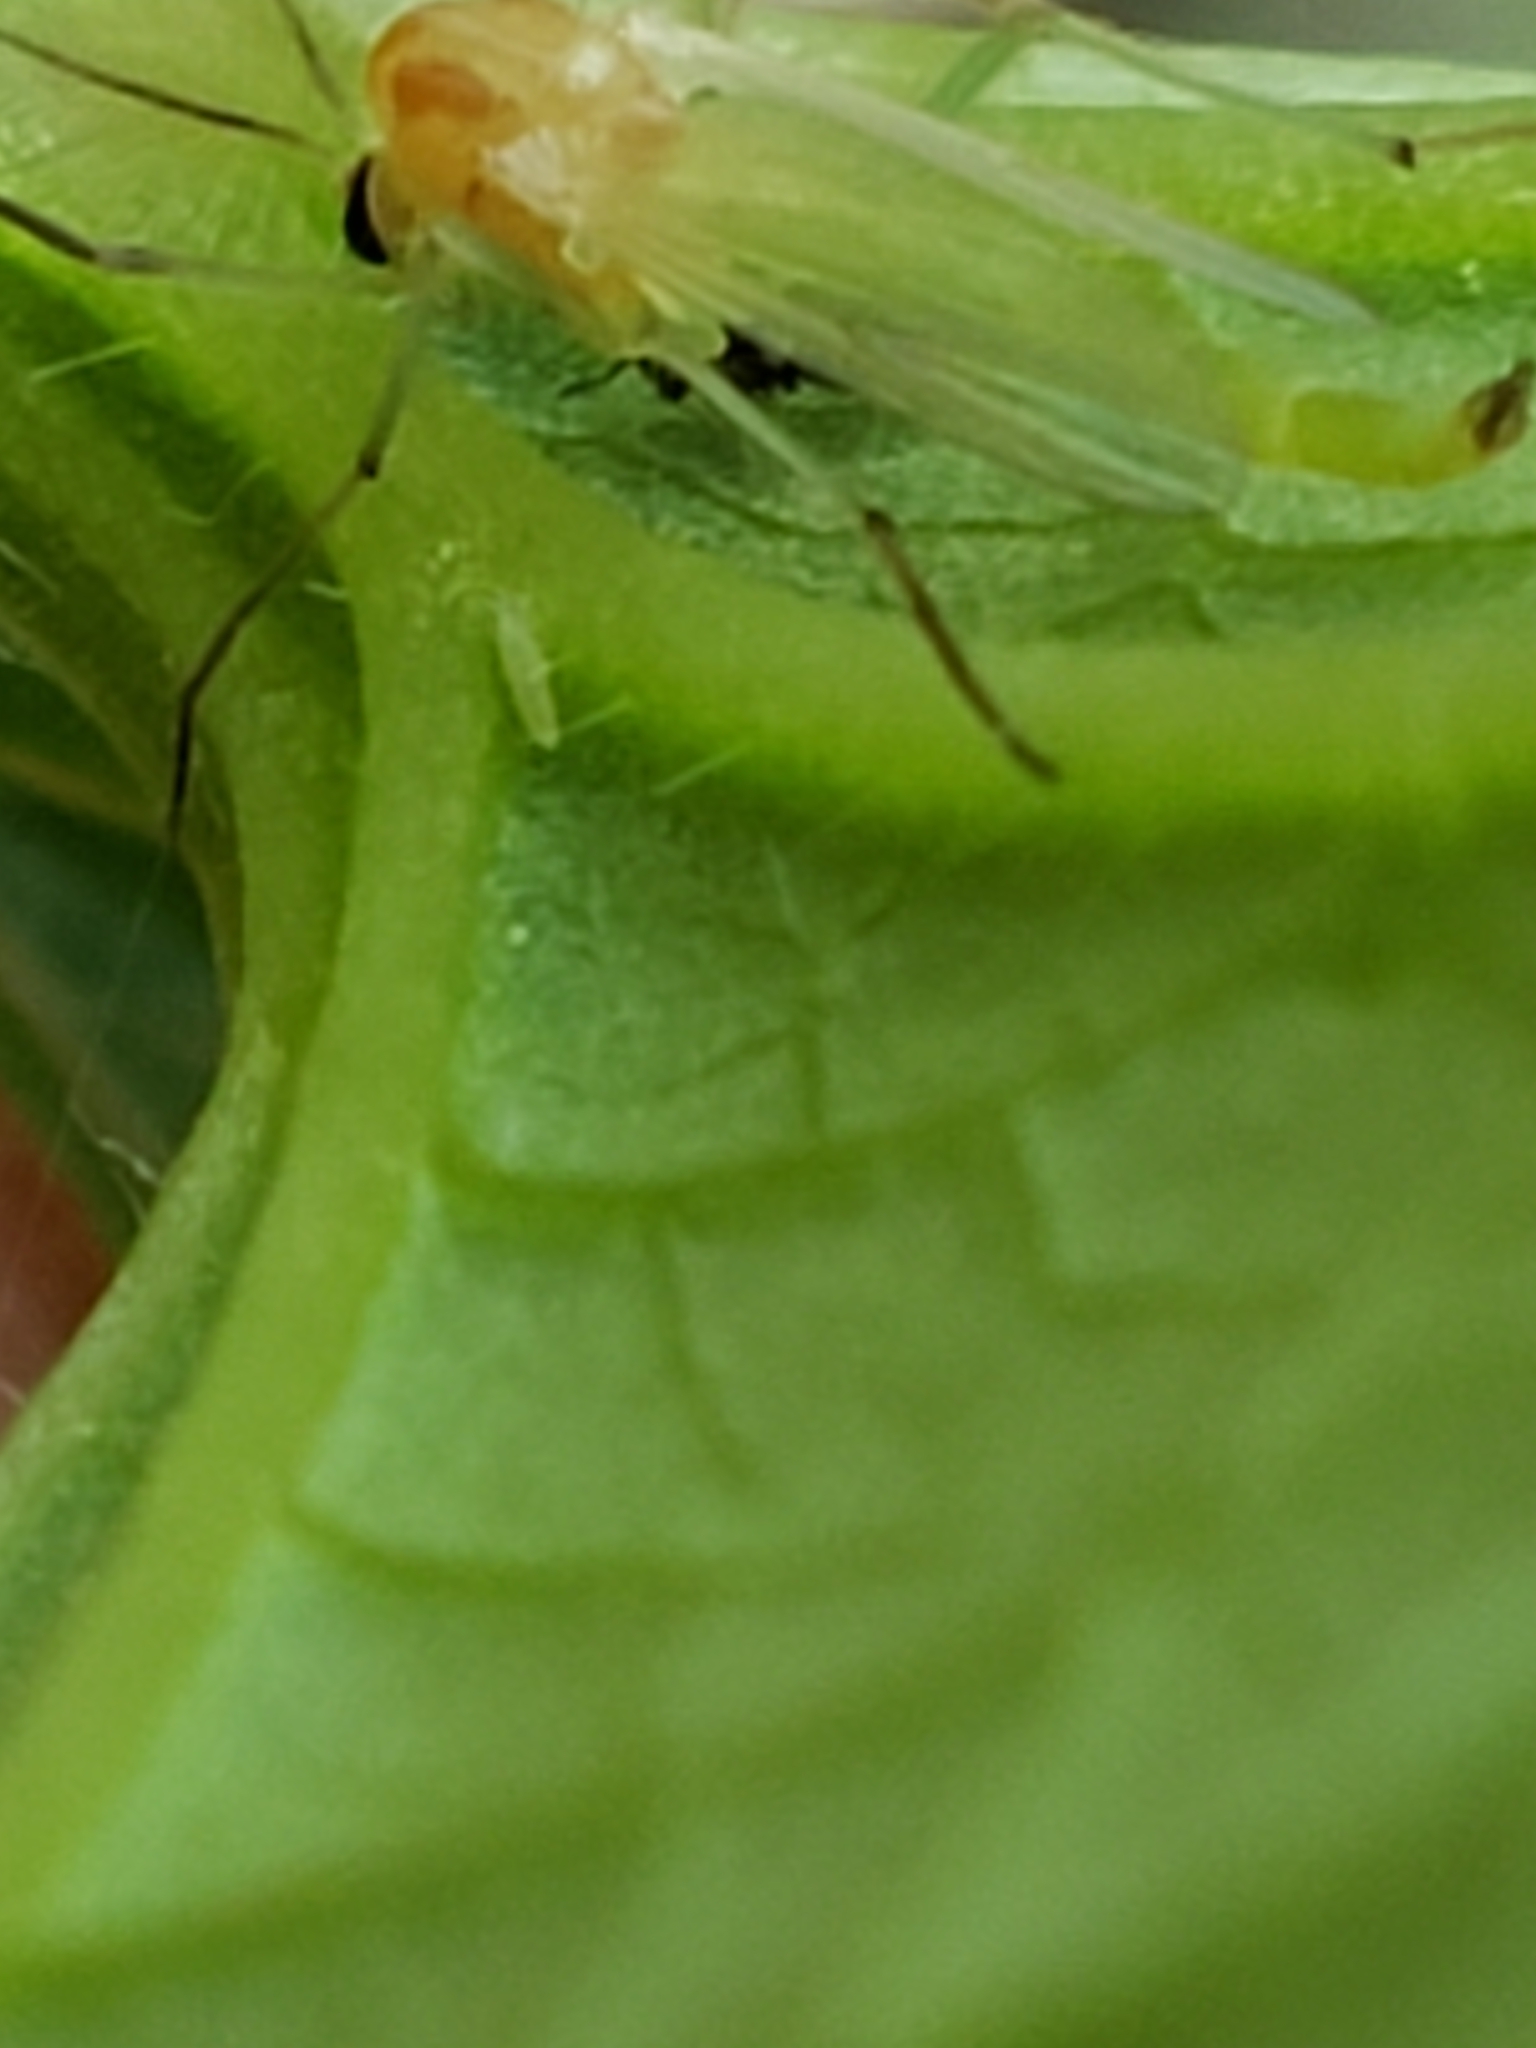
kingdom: Animalia
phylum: Arthropoda
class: Insecta
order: Diptera
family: Chironomidae
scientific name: Chironomidae
